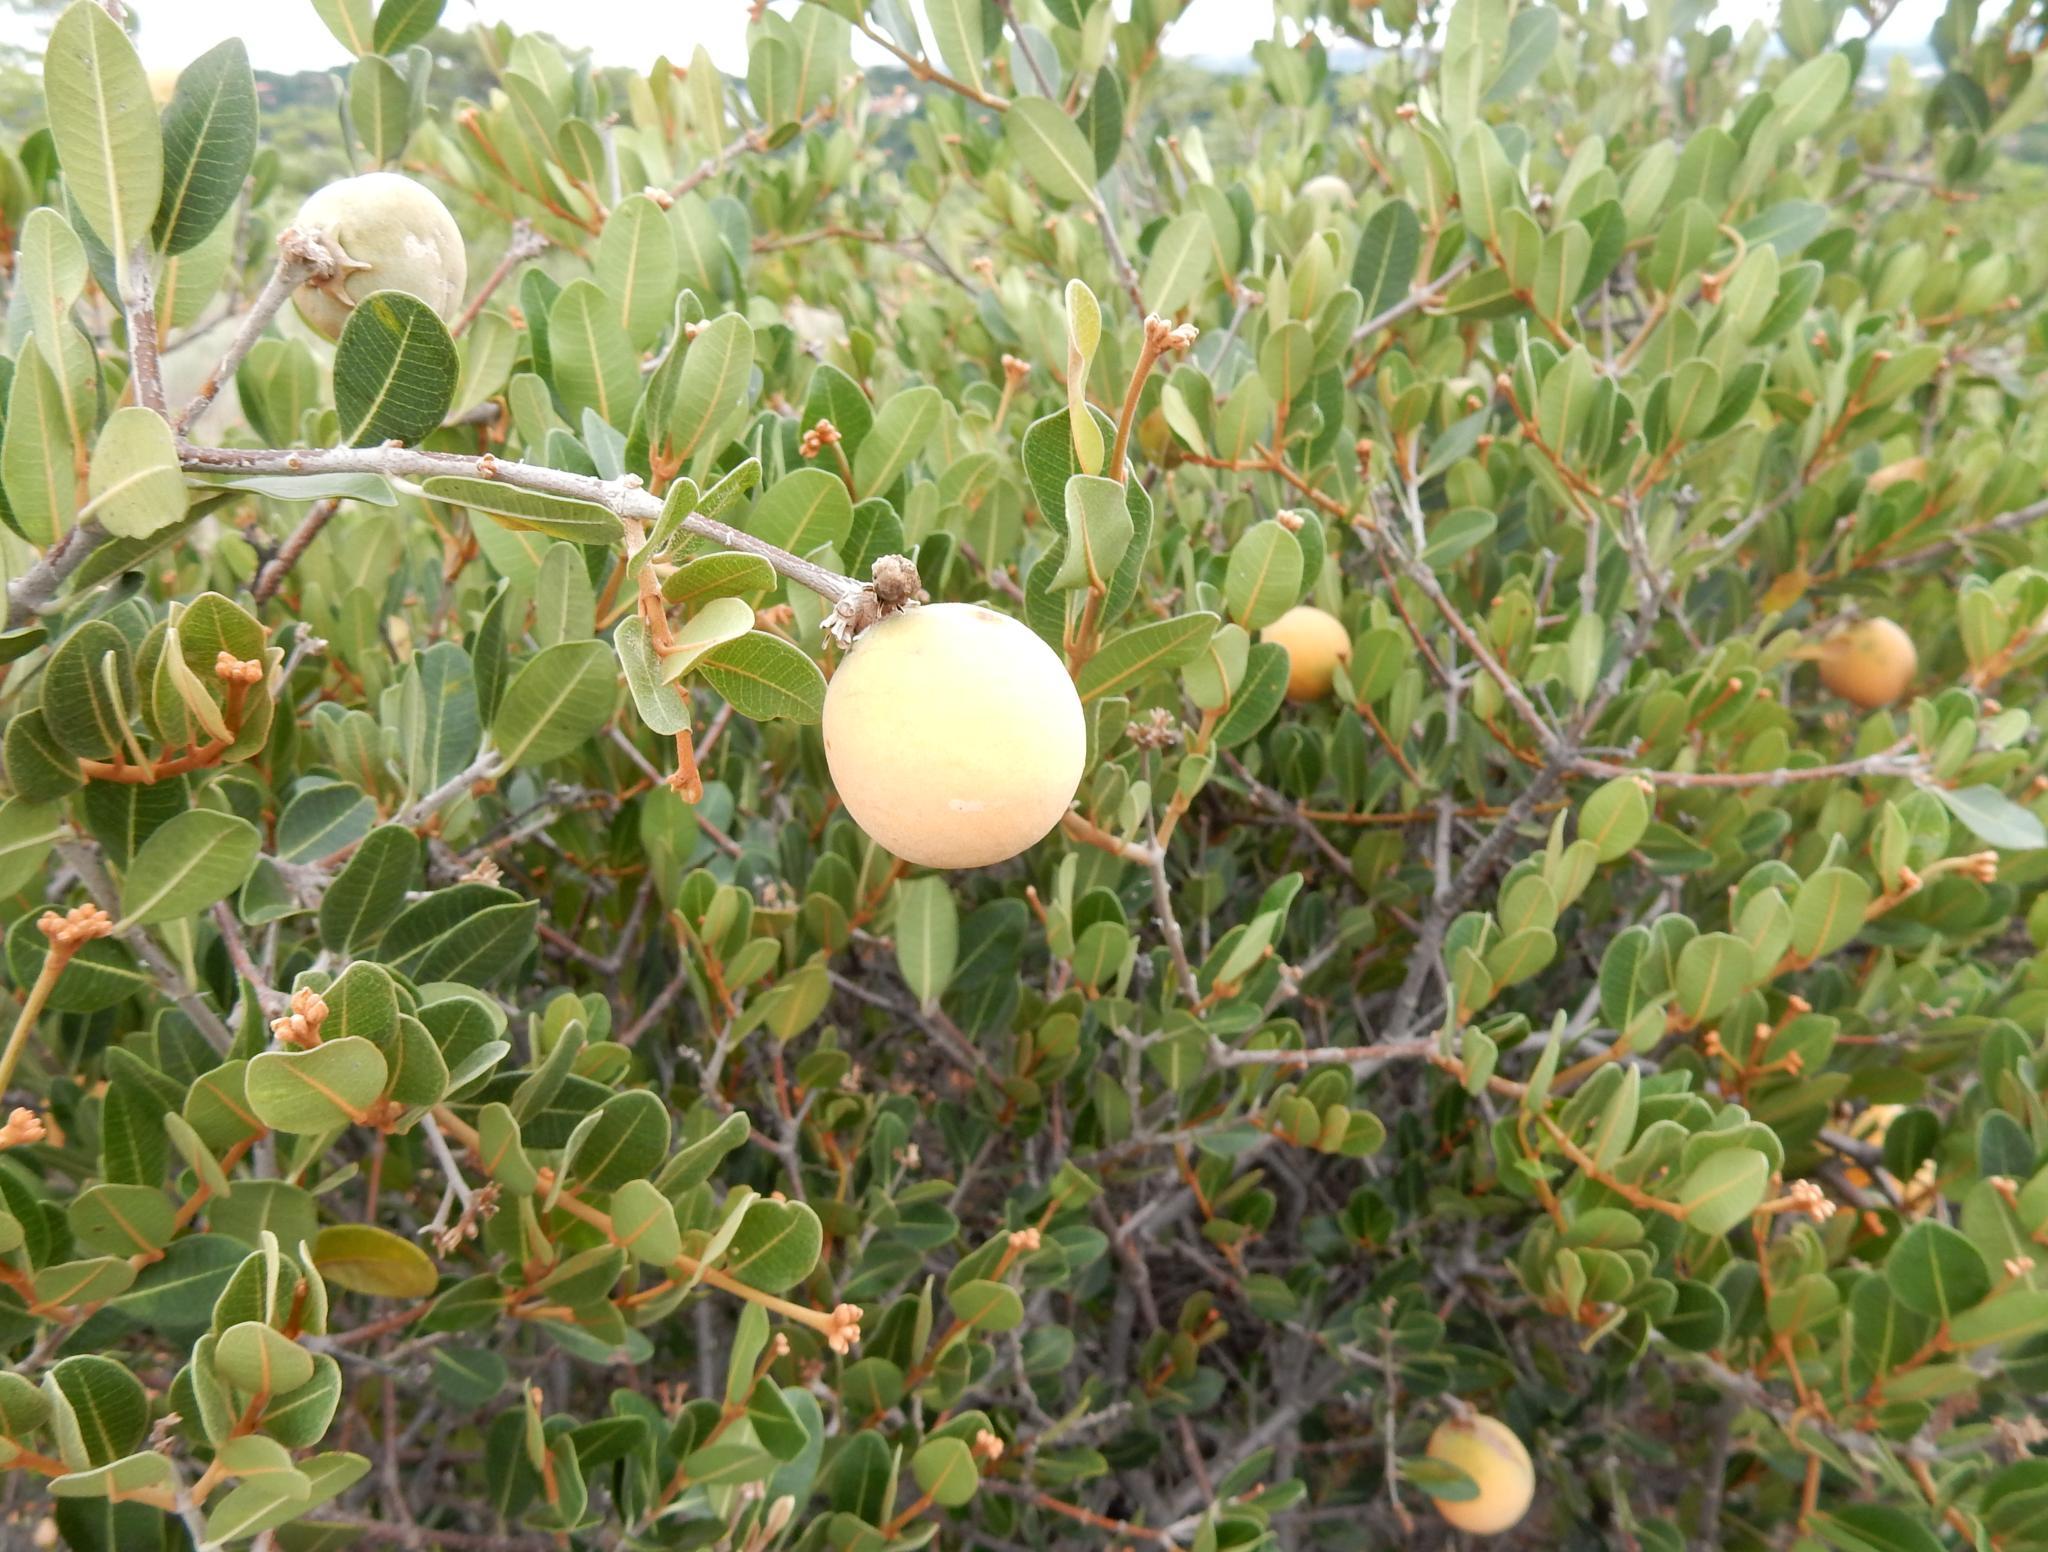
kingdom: Plantae
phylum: Tracheophyta
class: Magnoliopsida
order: Gentianales
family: Apocynaceae
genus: Ancylobothrys
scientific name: Ancylobothrys capensis
